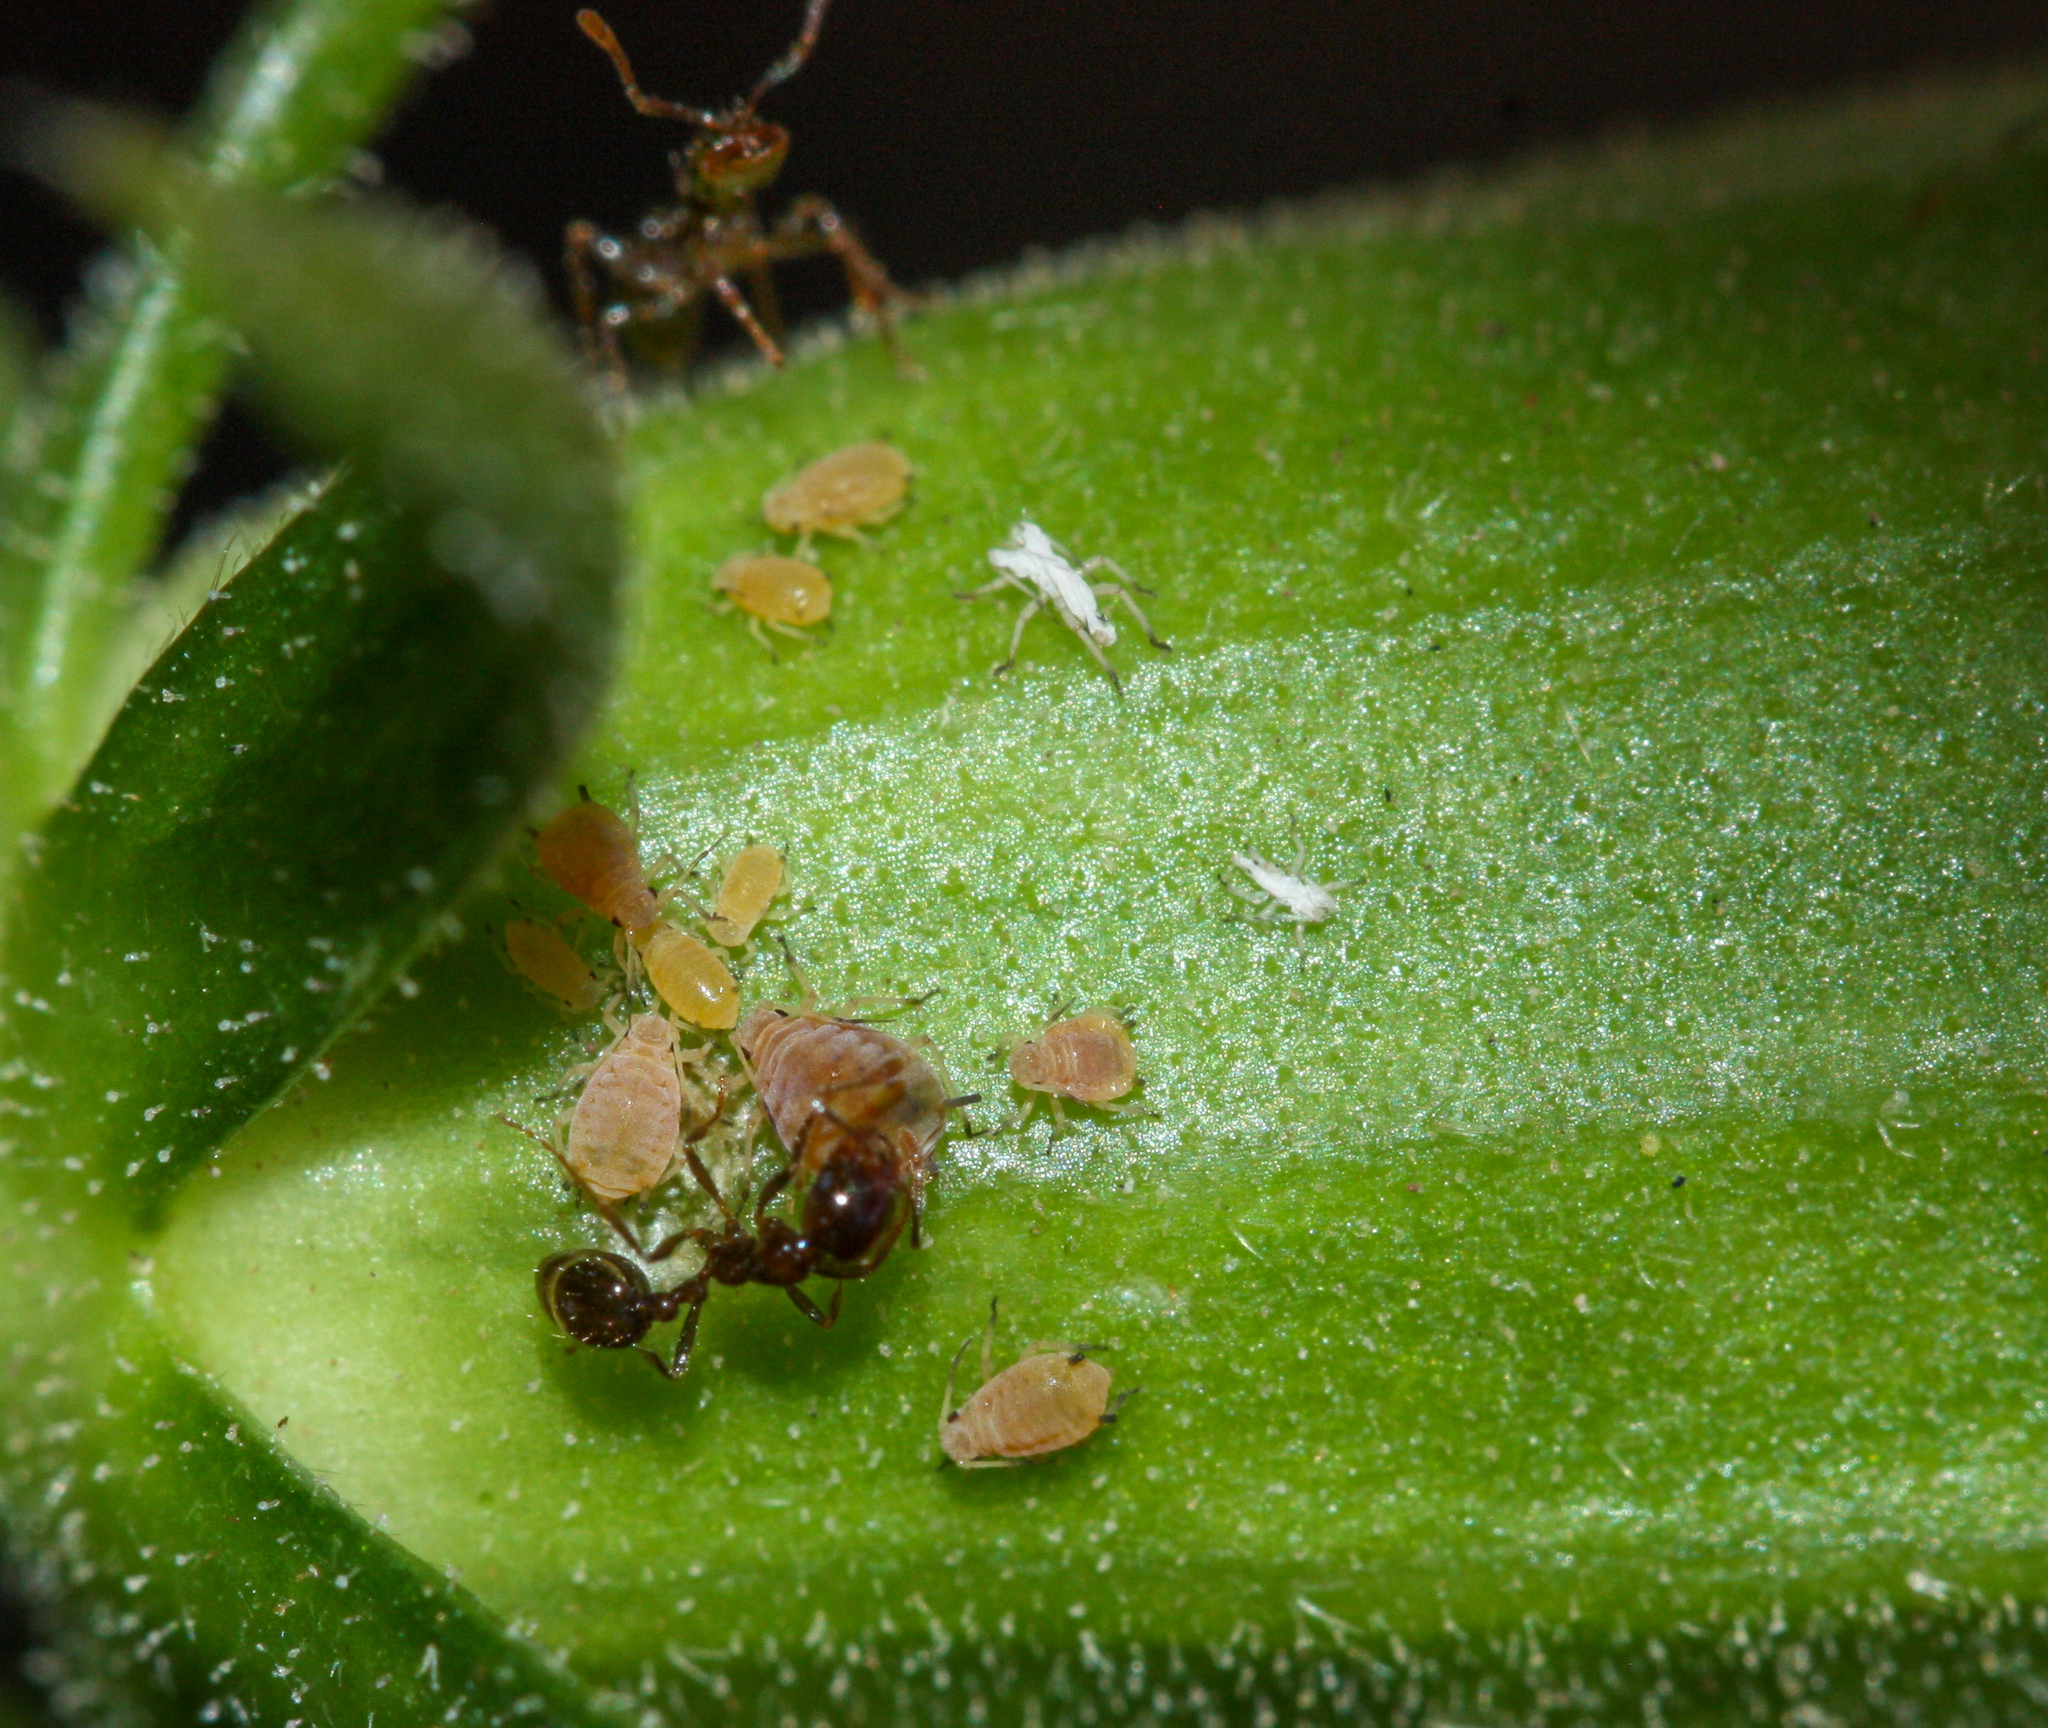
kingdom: Animalia
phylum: Arthropoda
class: Insecta
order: Hymenoptera
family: Formicidae
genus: Solenopsis
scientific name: Solenopsis xyloni
